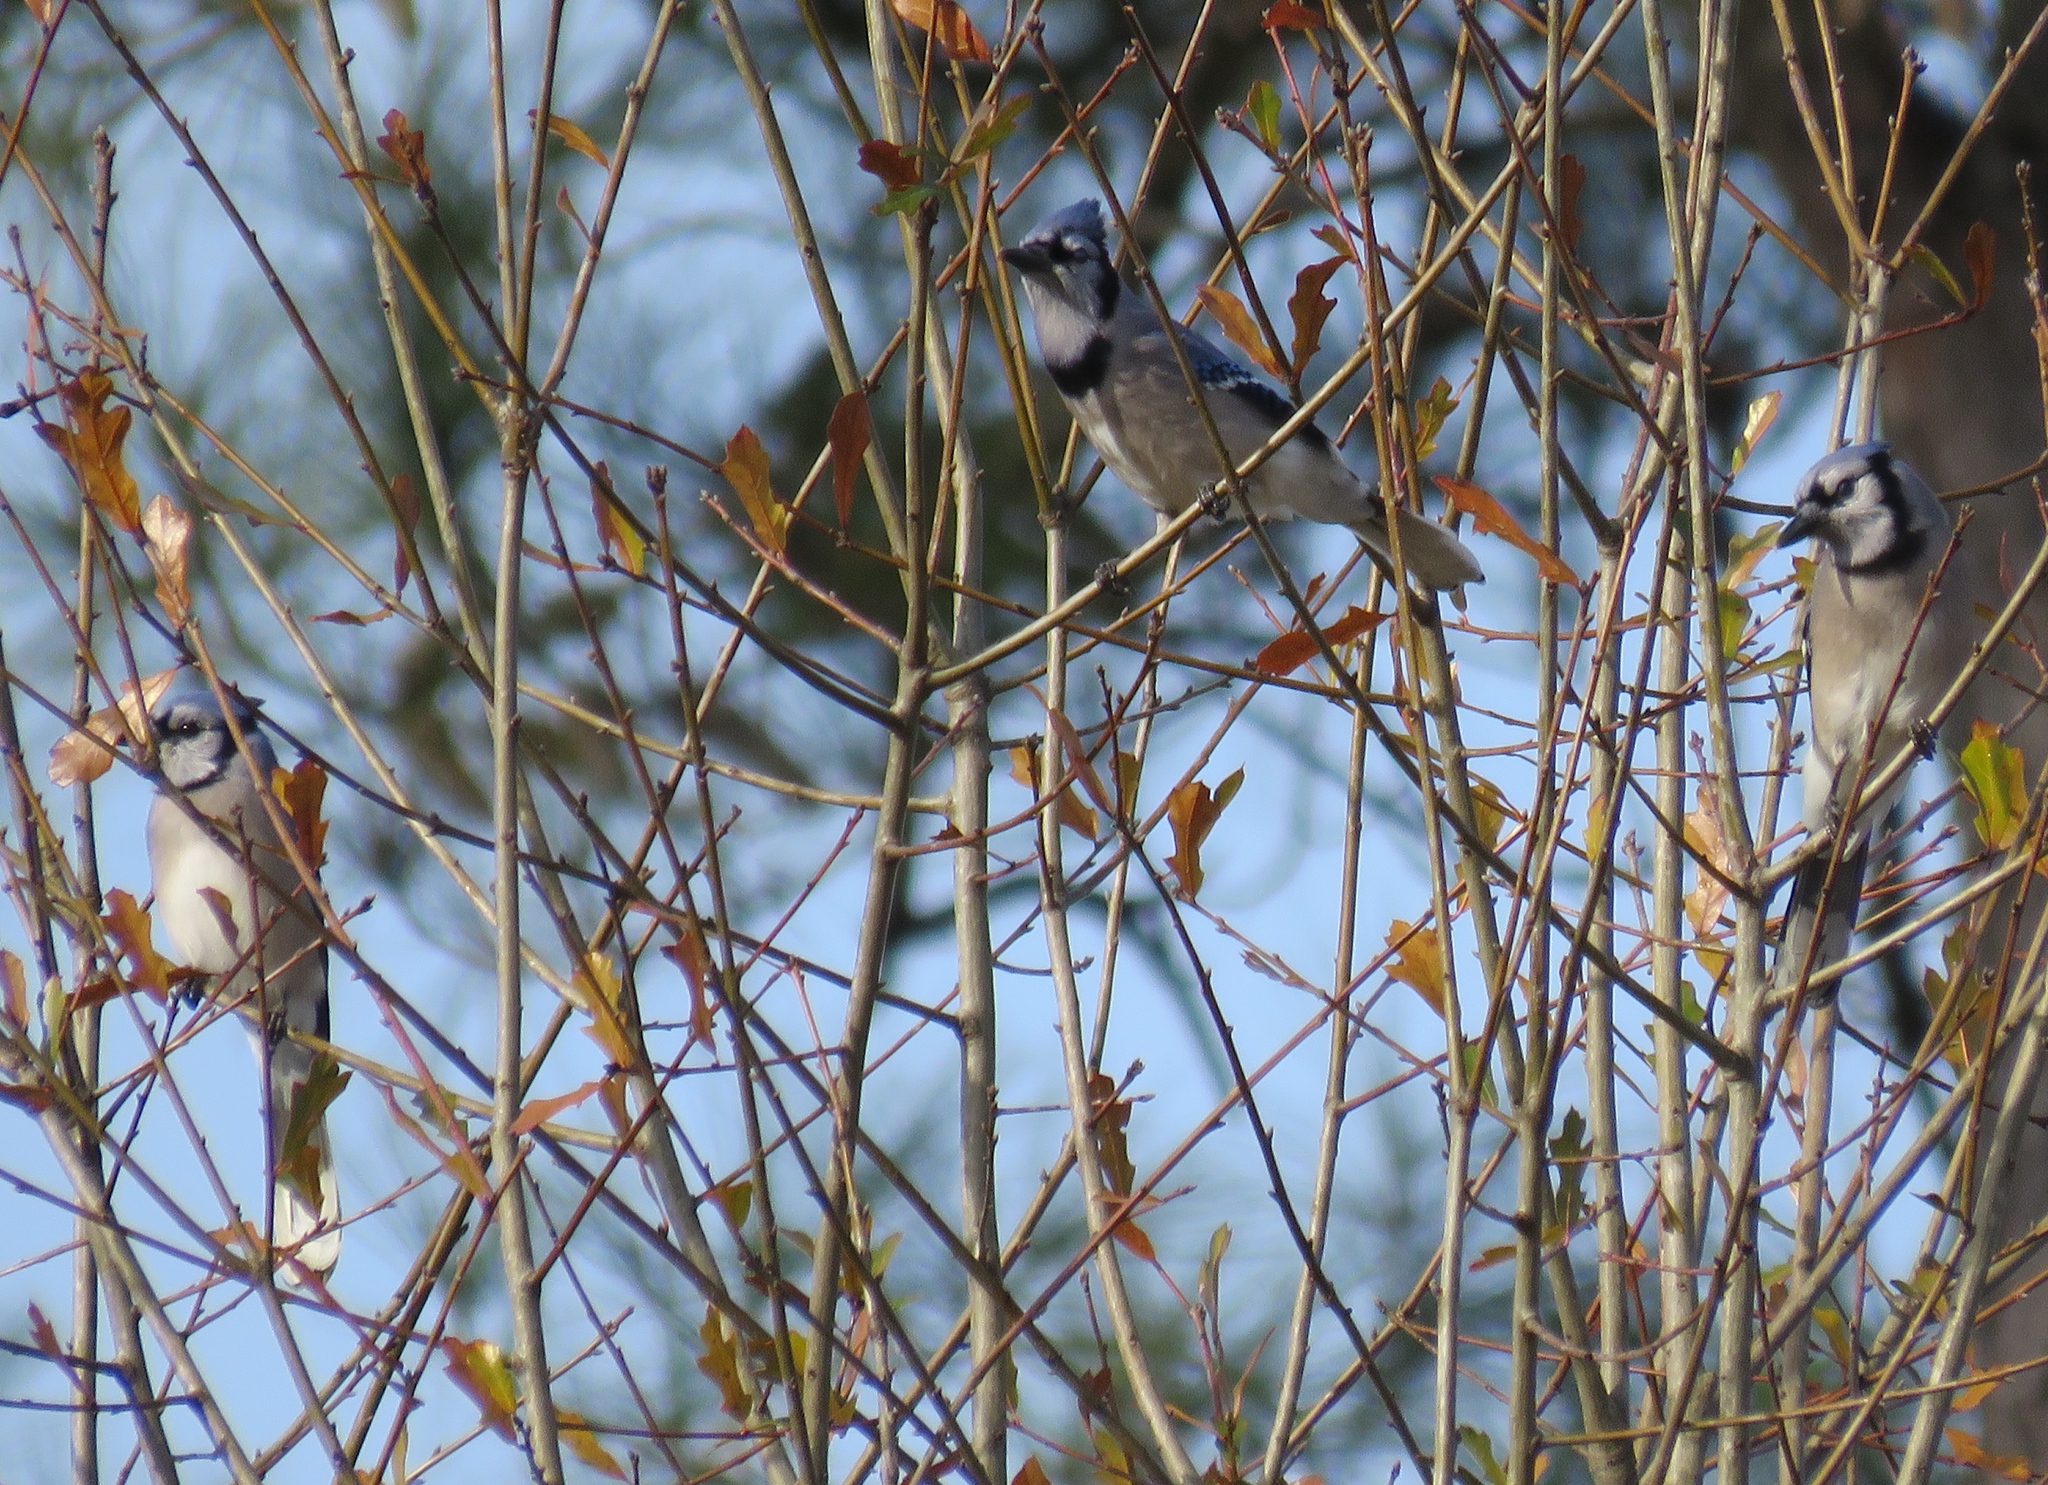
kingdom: Animalia
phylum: Chordata
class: Aves
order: Passeriformes
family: Corvidae
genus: Cyanocitta
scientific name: Cyanocitta cristata
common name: Blue jay
